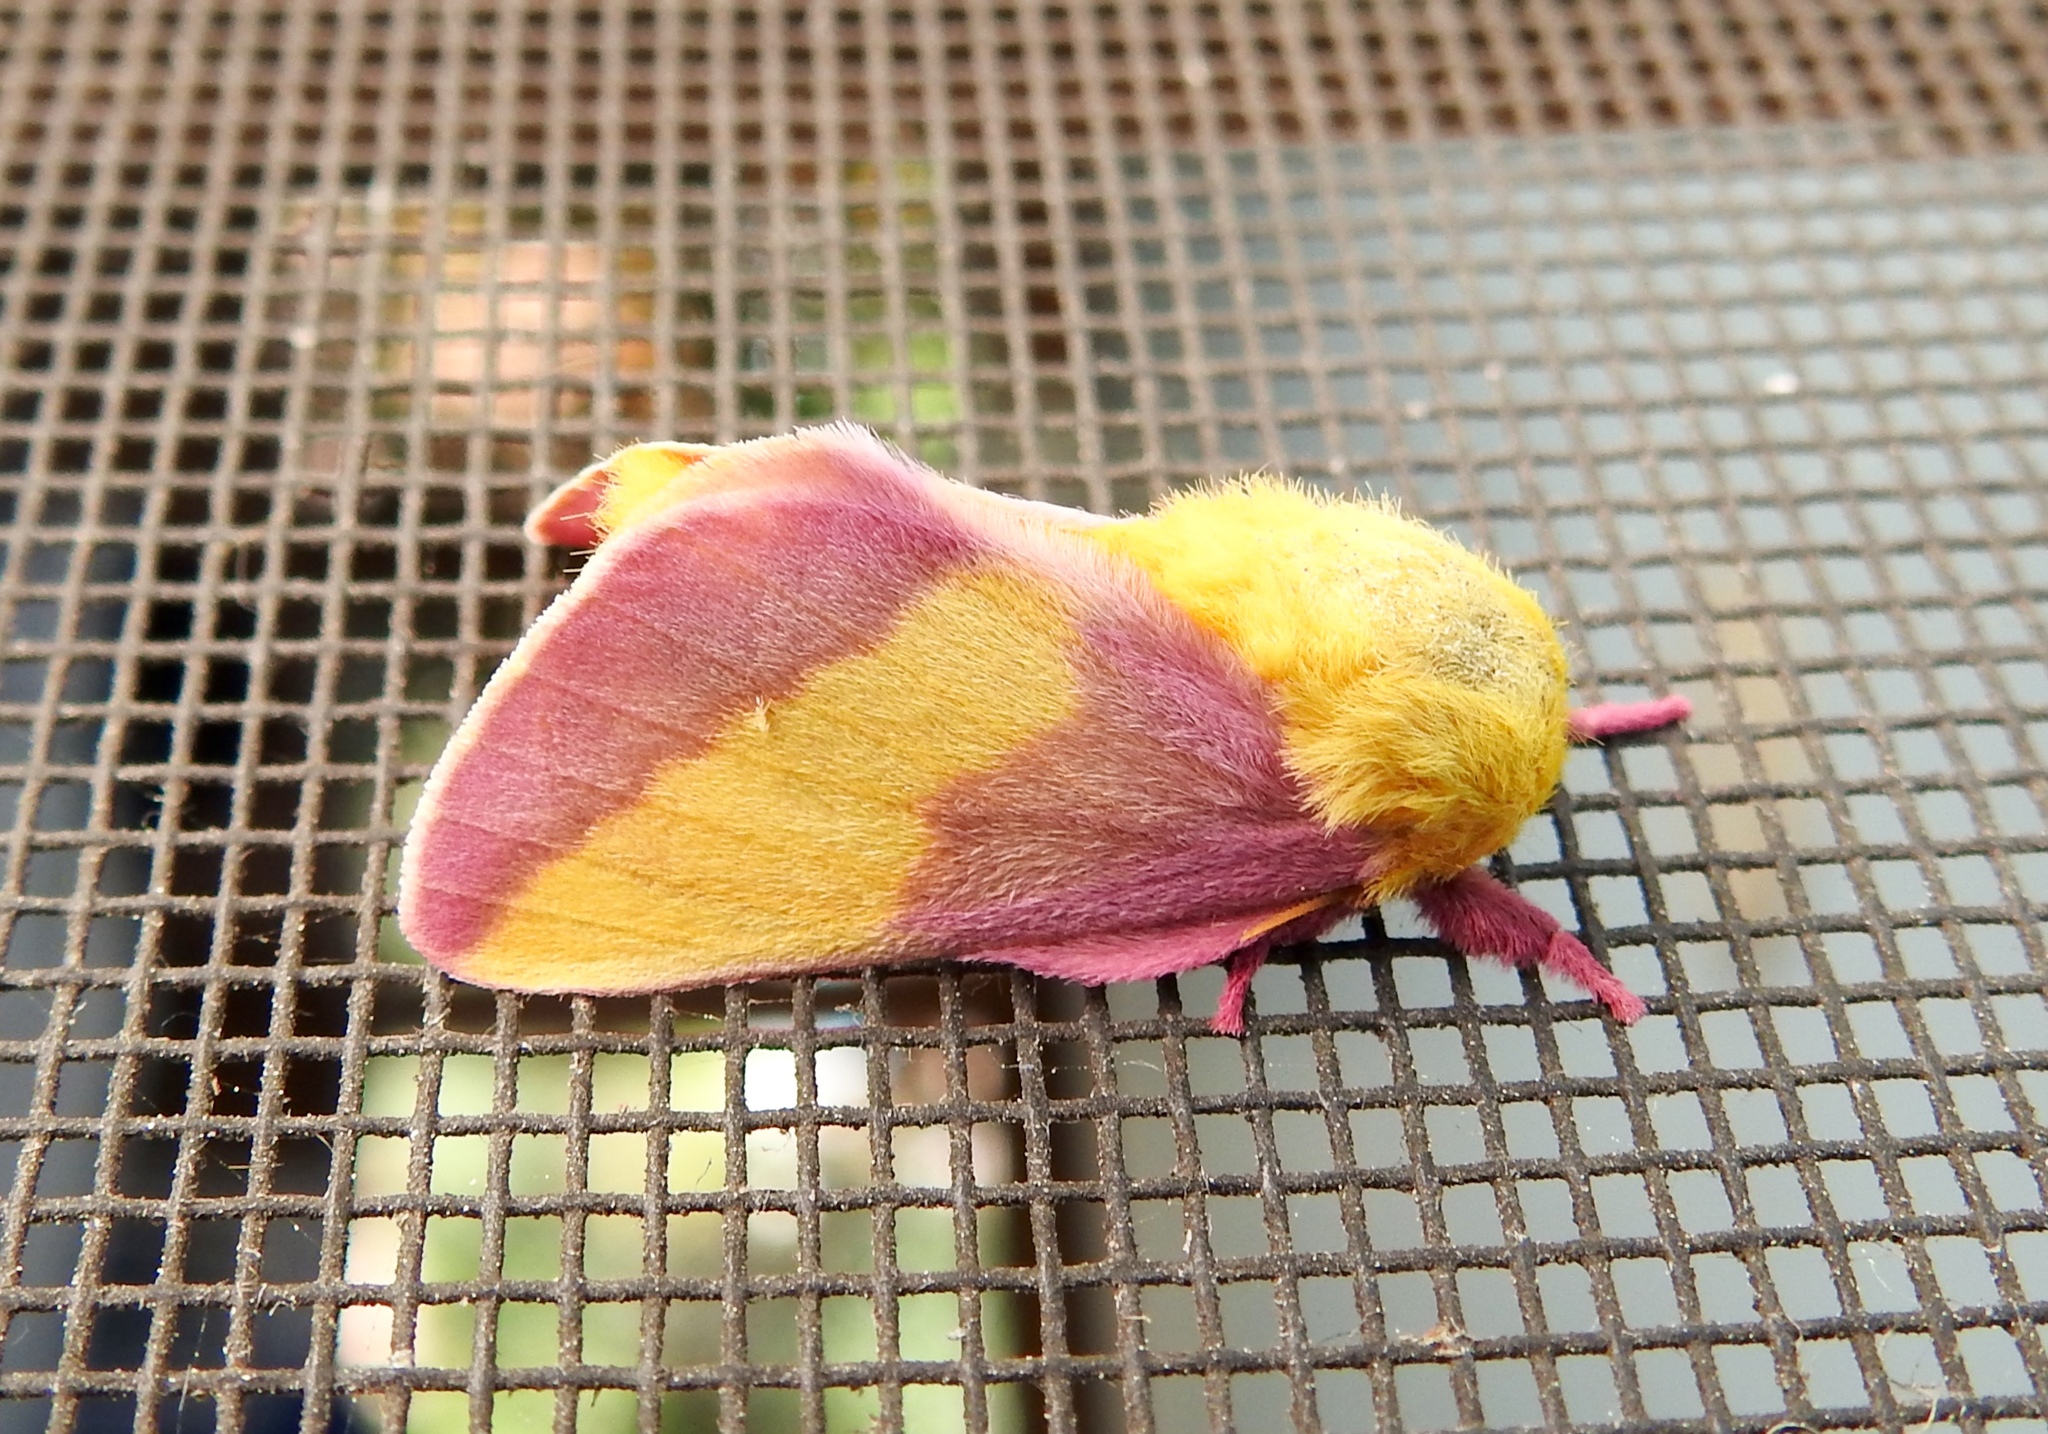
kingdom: Animalia
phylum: Arthropoda
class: Insecta
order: Lepidoptera
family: Saturniidae
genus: Dryocampa
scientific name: Dryocampa rubicunda
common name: Rosy maple moth
